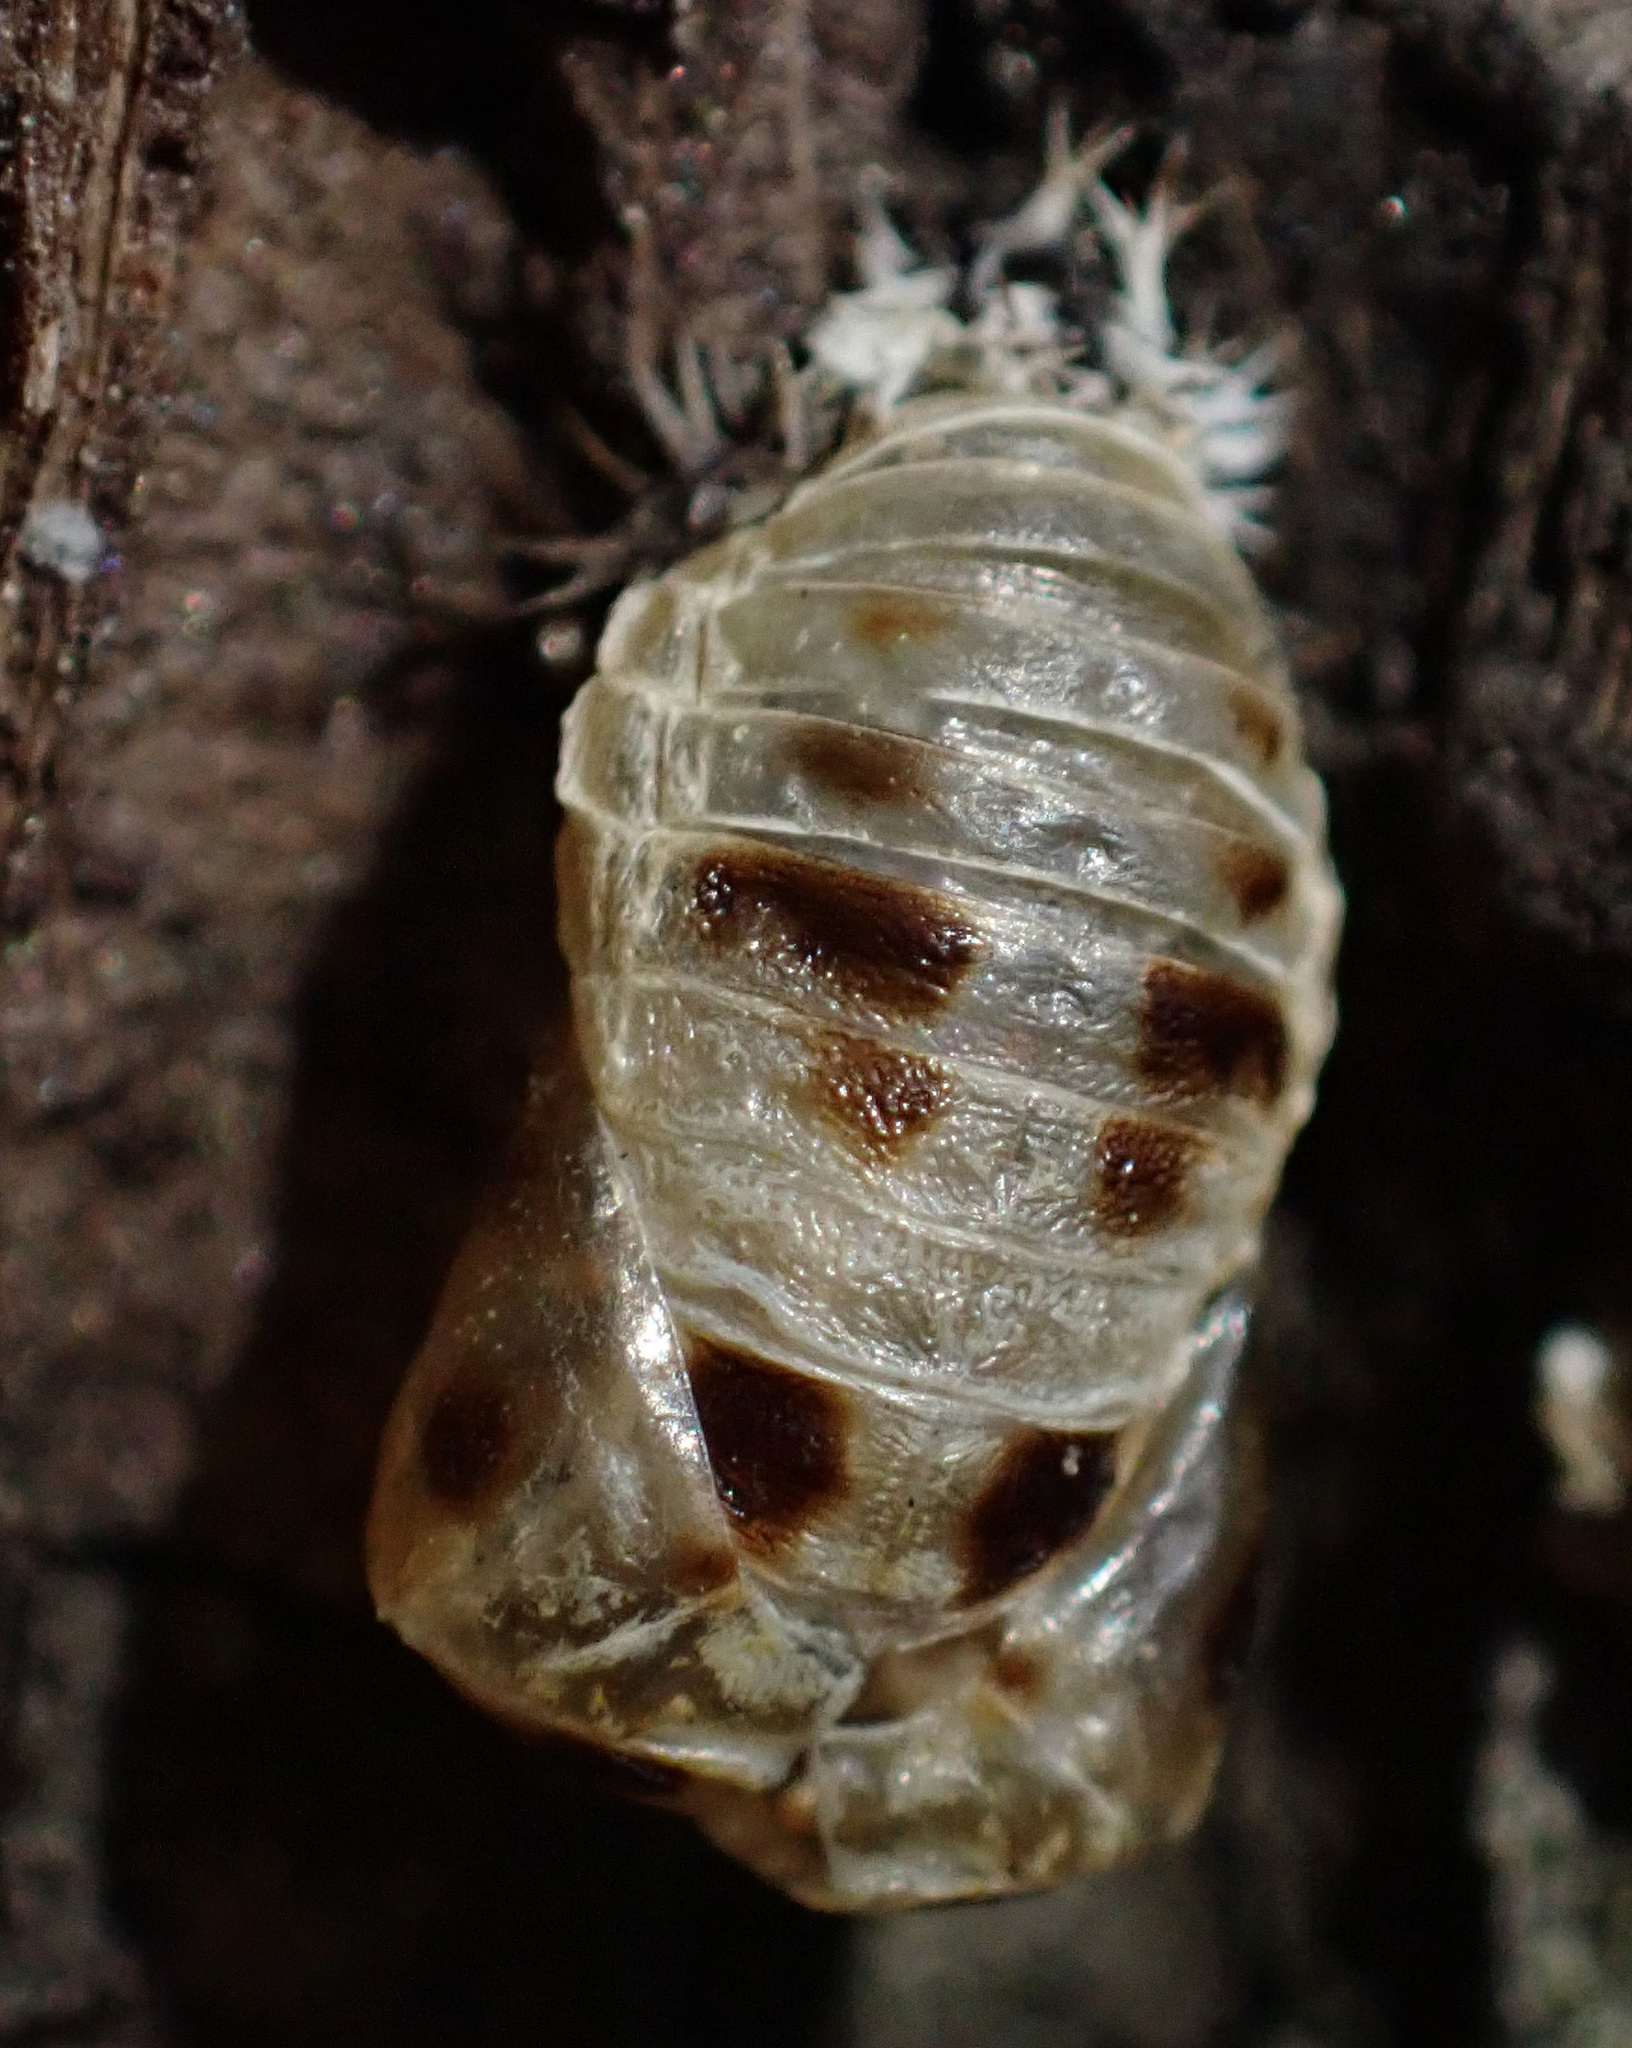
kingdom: Animalia
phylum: Arthropoda
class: Insecta
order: Coleoptera
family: Coccinellidae
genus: Harmonia
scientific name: Harmonia axyridis
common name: Harlequin ladybird
